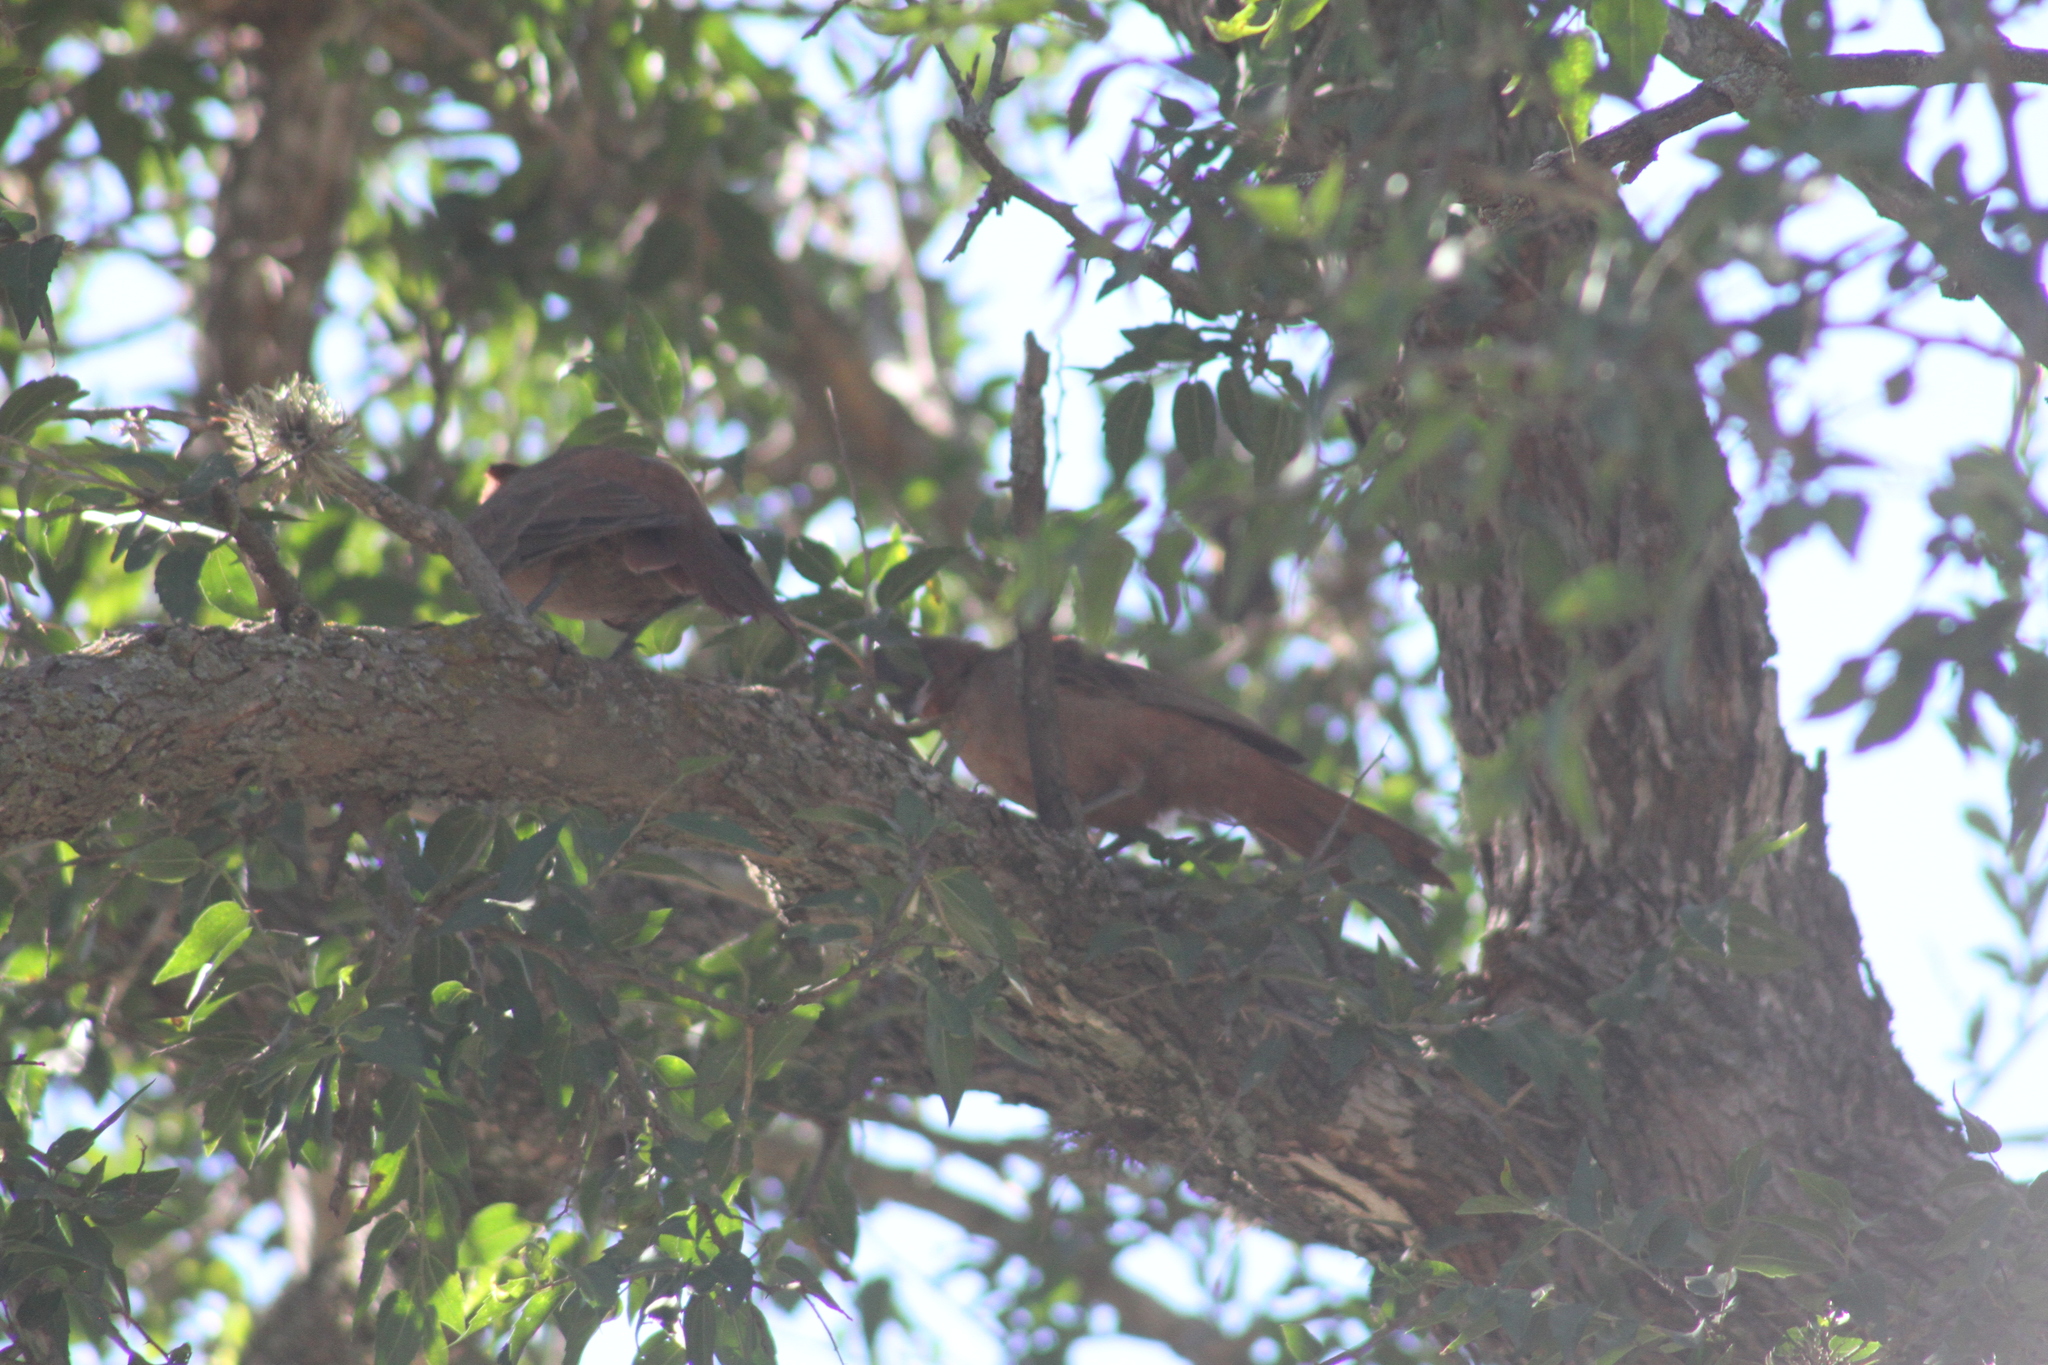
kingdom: Animalia
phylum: Chordata
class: Aves
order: Passeriformes
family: Furnariidae
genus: Pseudoseisura
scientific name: Pseudoseisura lophotes
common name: Brown cacholote
